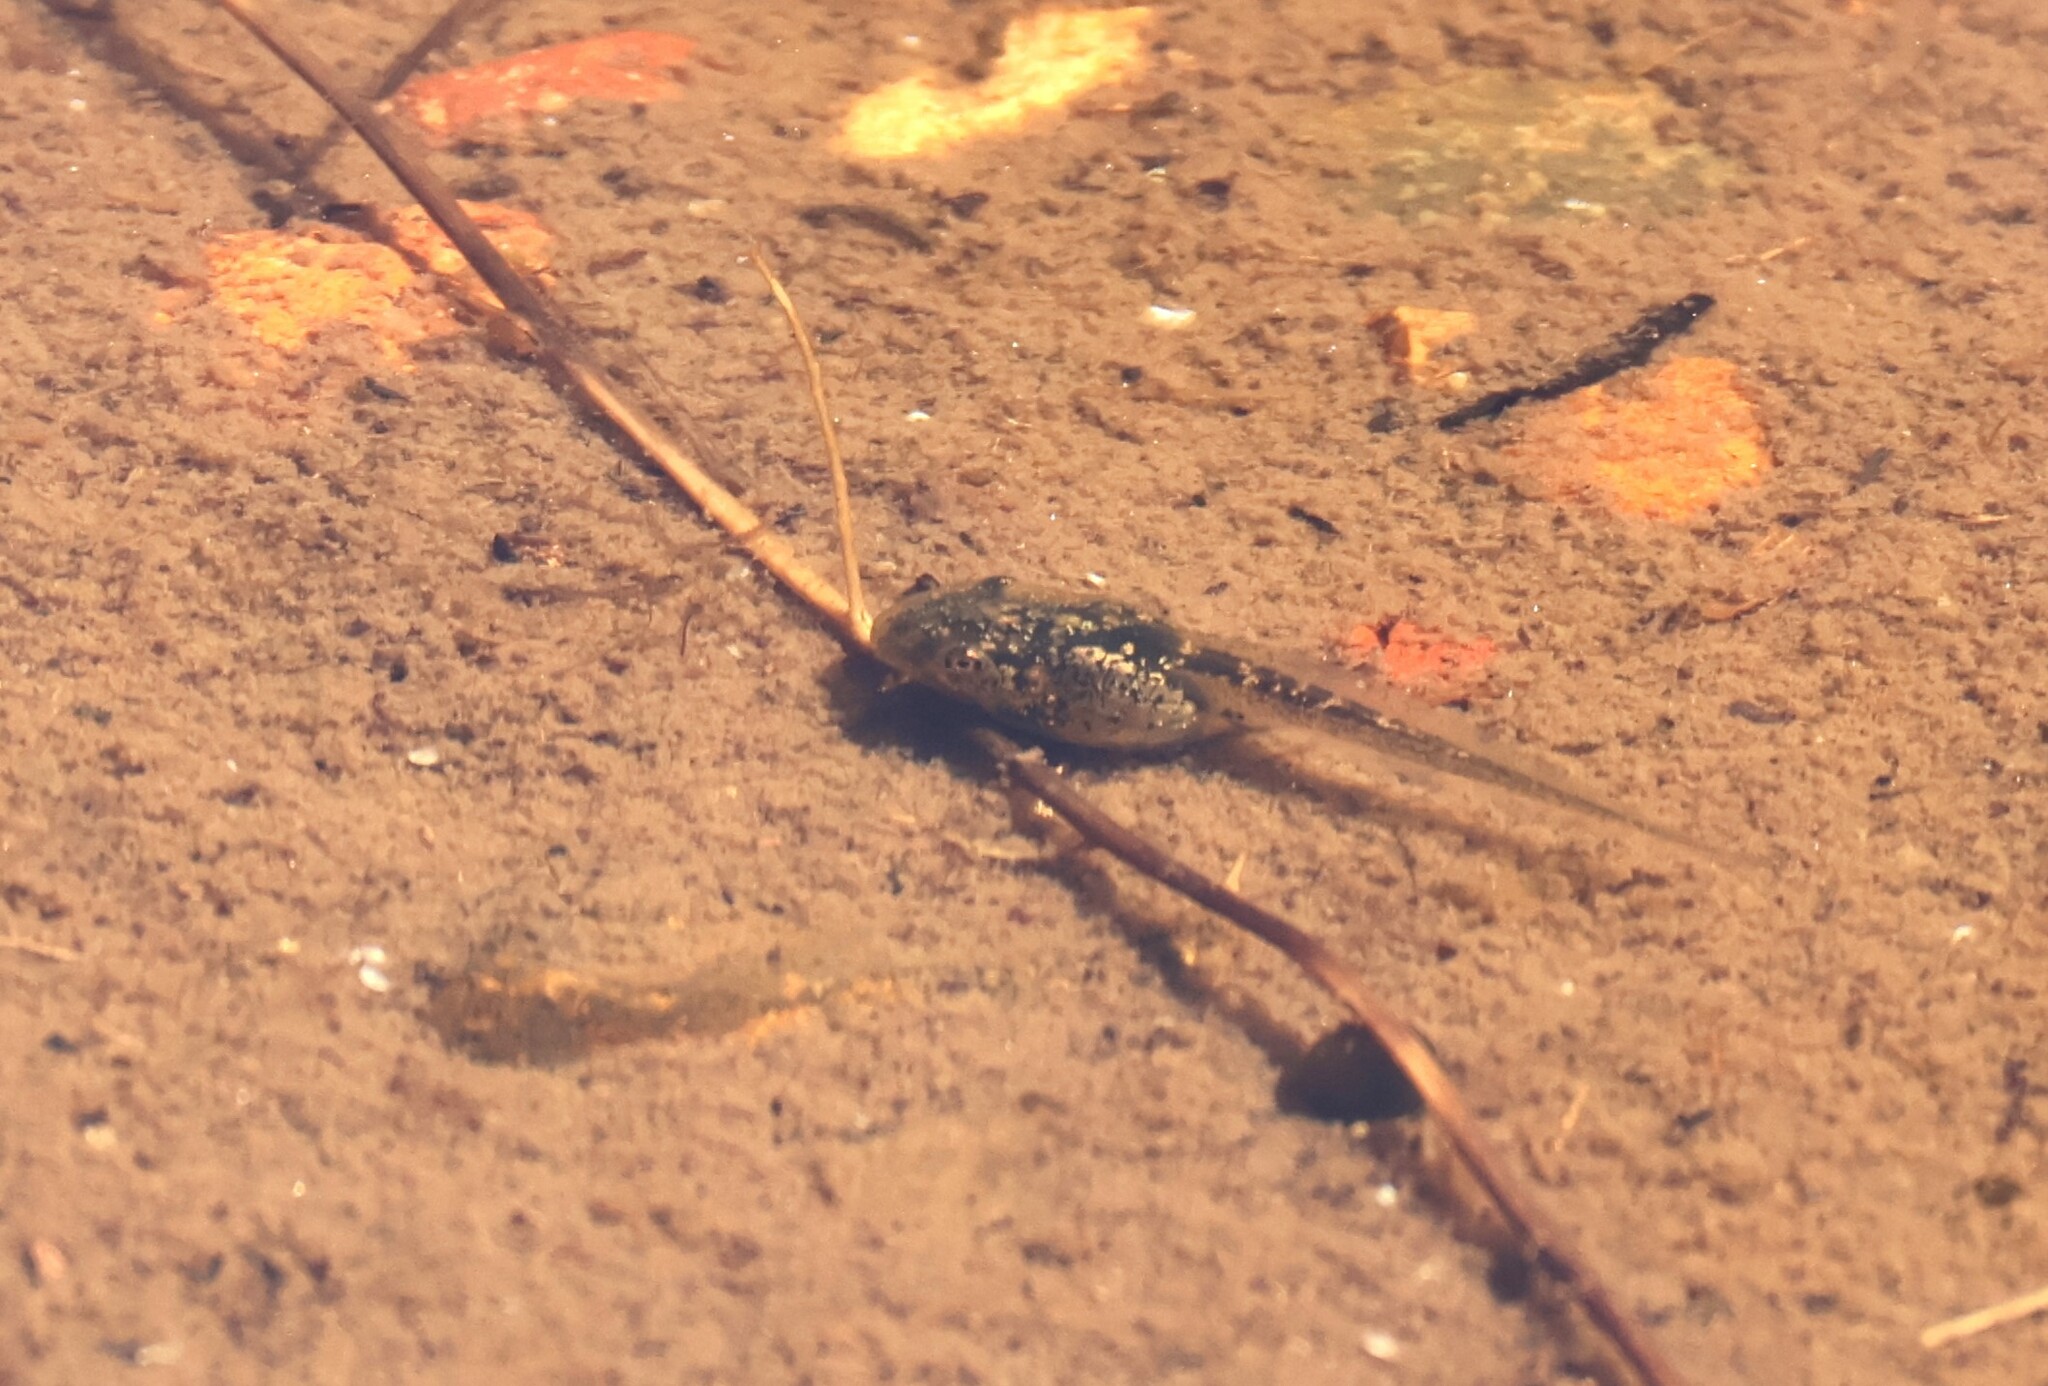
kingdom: Animalia
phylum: Chordata
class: Amphibia
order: Anura
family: Hylidae
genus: Pseudacris
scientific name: Pseudacris regilla
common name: Pacific chorus frog
